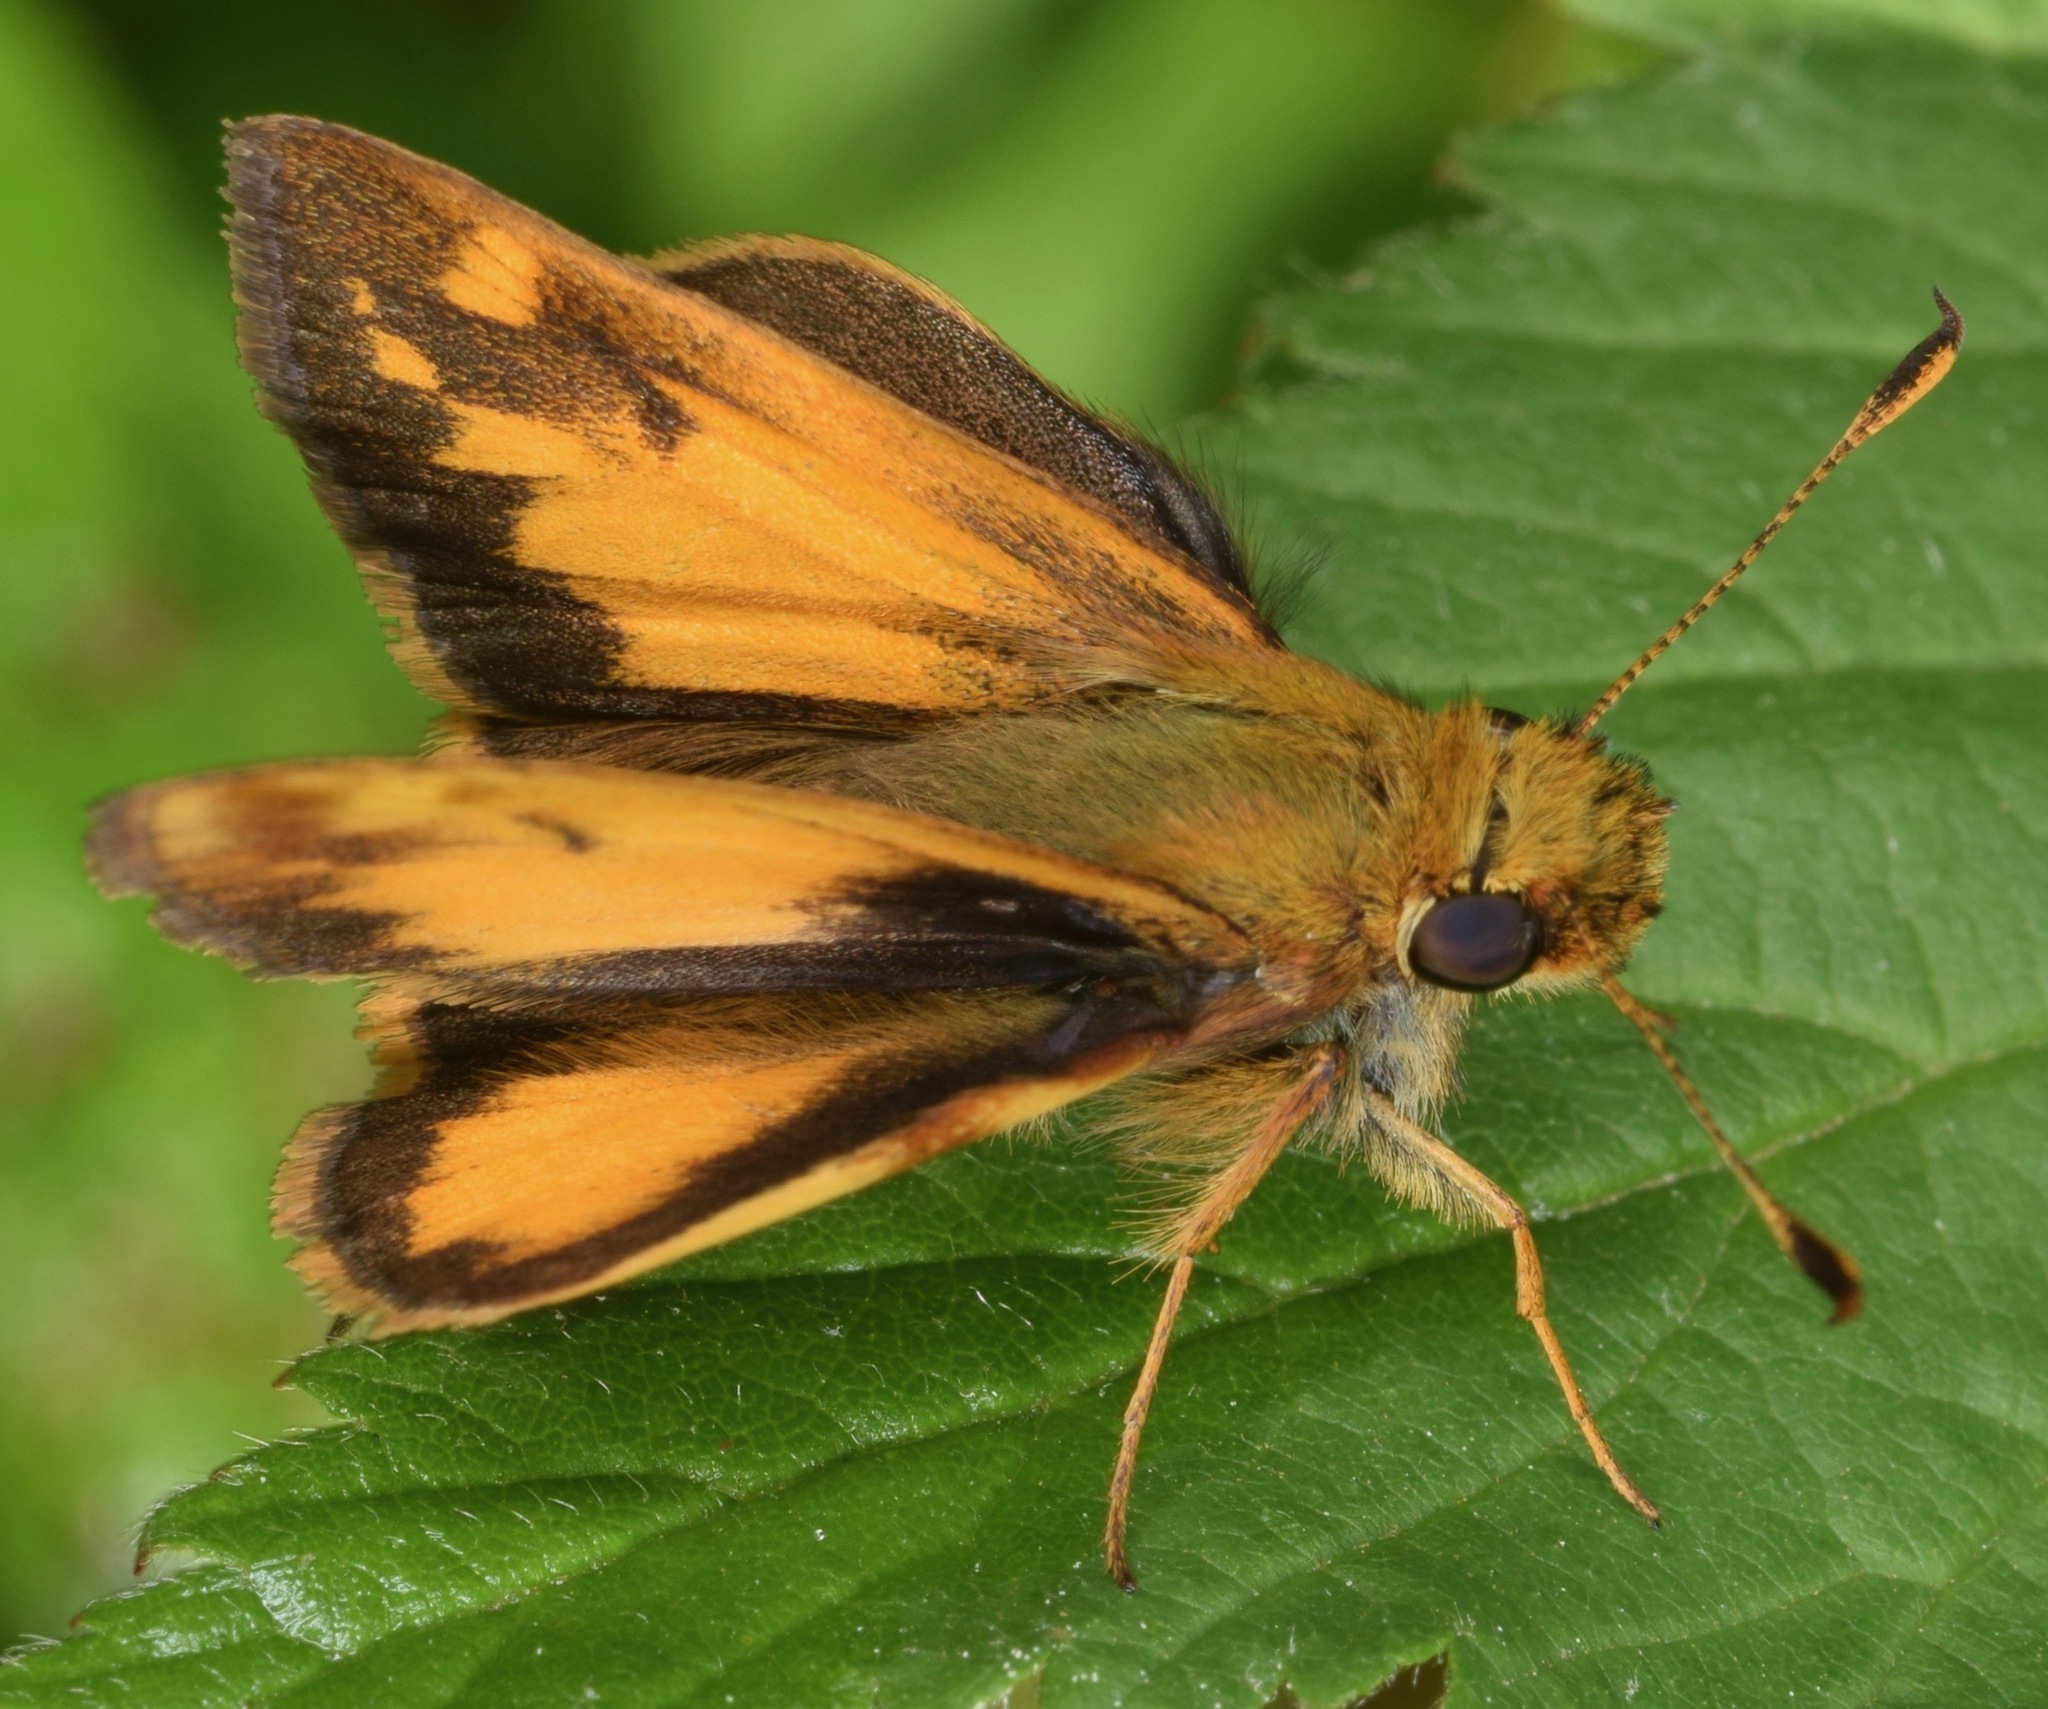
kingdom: Animalia
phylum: Arthropoda
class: Insecta
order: Lepidoptera
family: Hesperiidae
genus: Lon
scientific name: Lon zabulon
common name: Zabulon skipper
